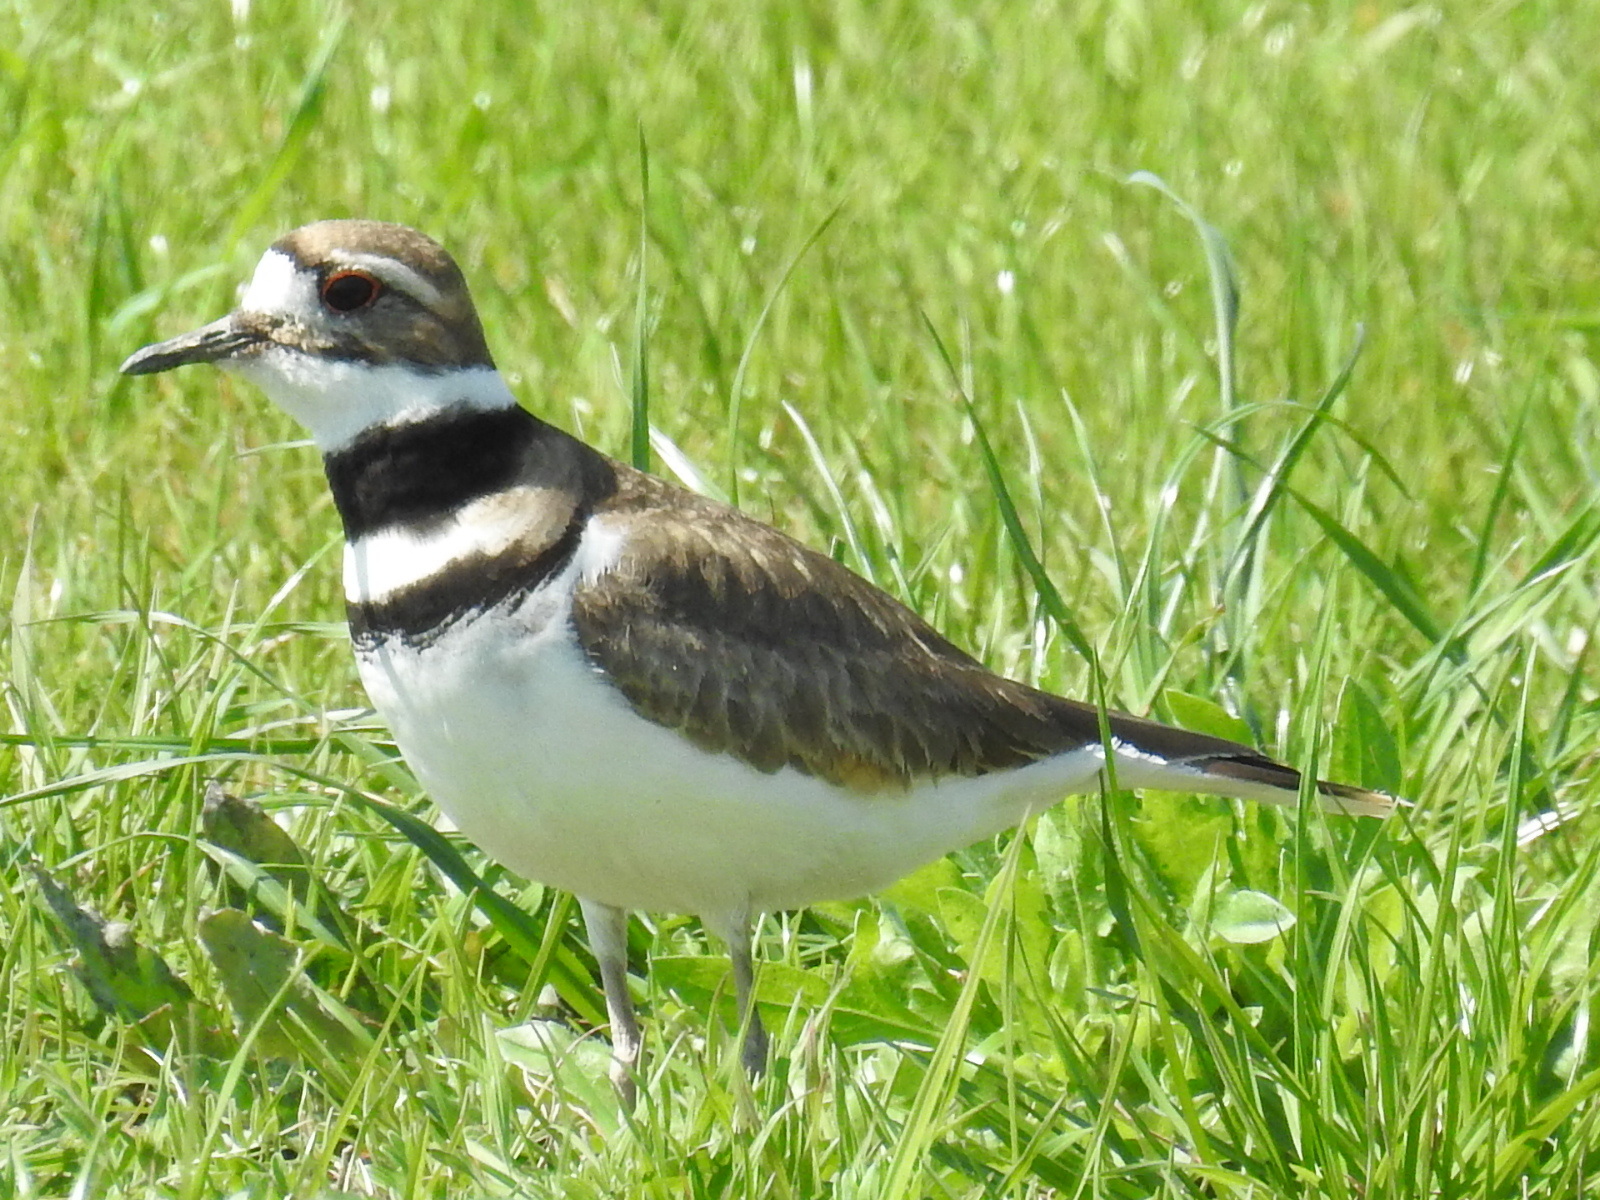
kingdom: Animalia
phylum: Chordata
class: Aves
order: Charadriiformes
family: Charadriidae
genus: Charadrius
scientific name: Charadrius vociferus
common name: Killdeer
